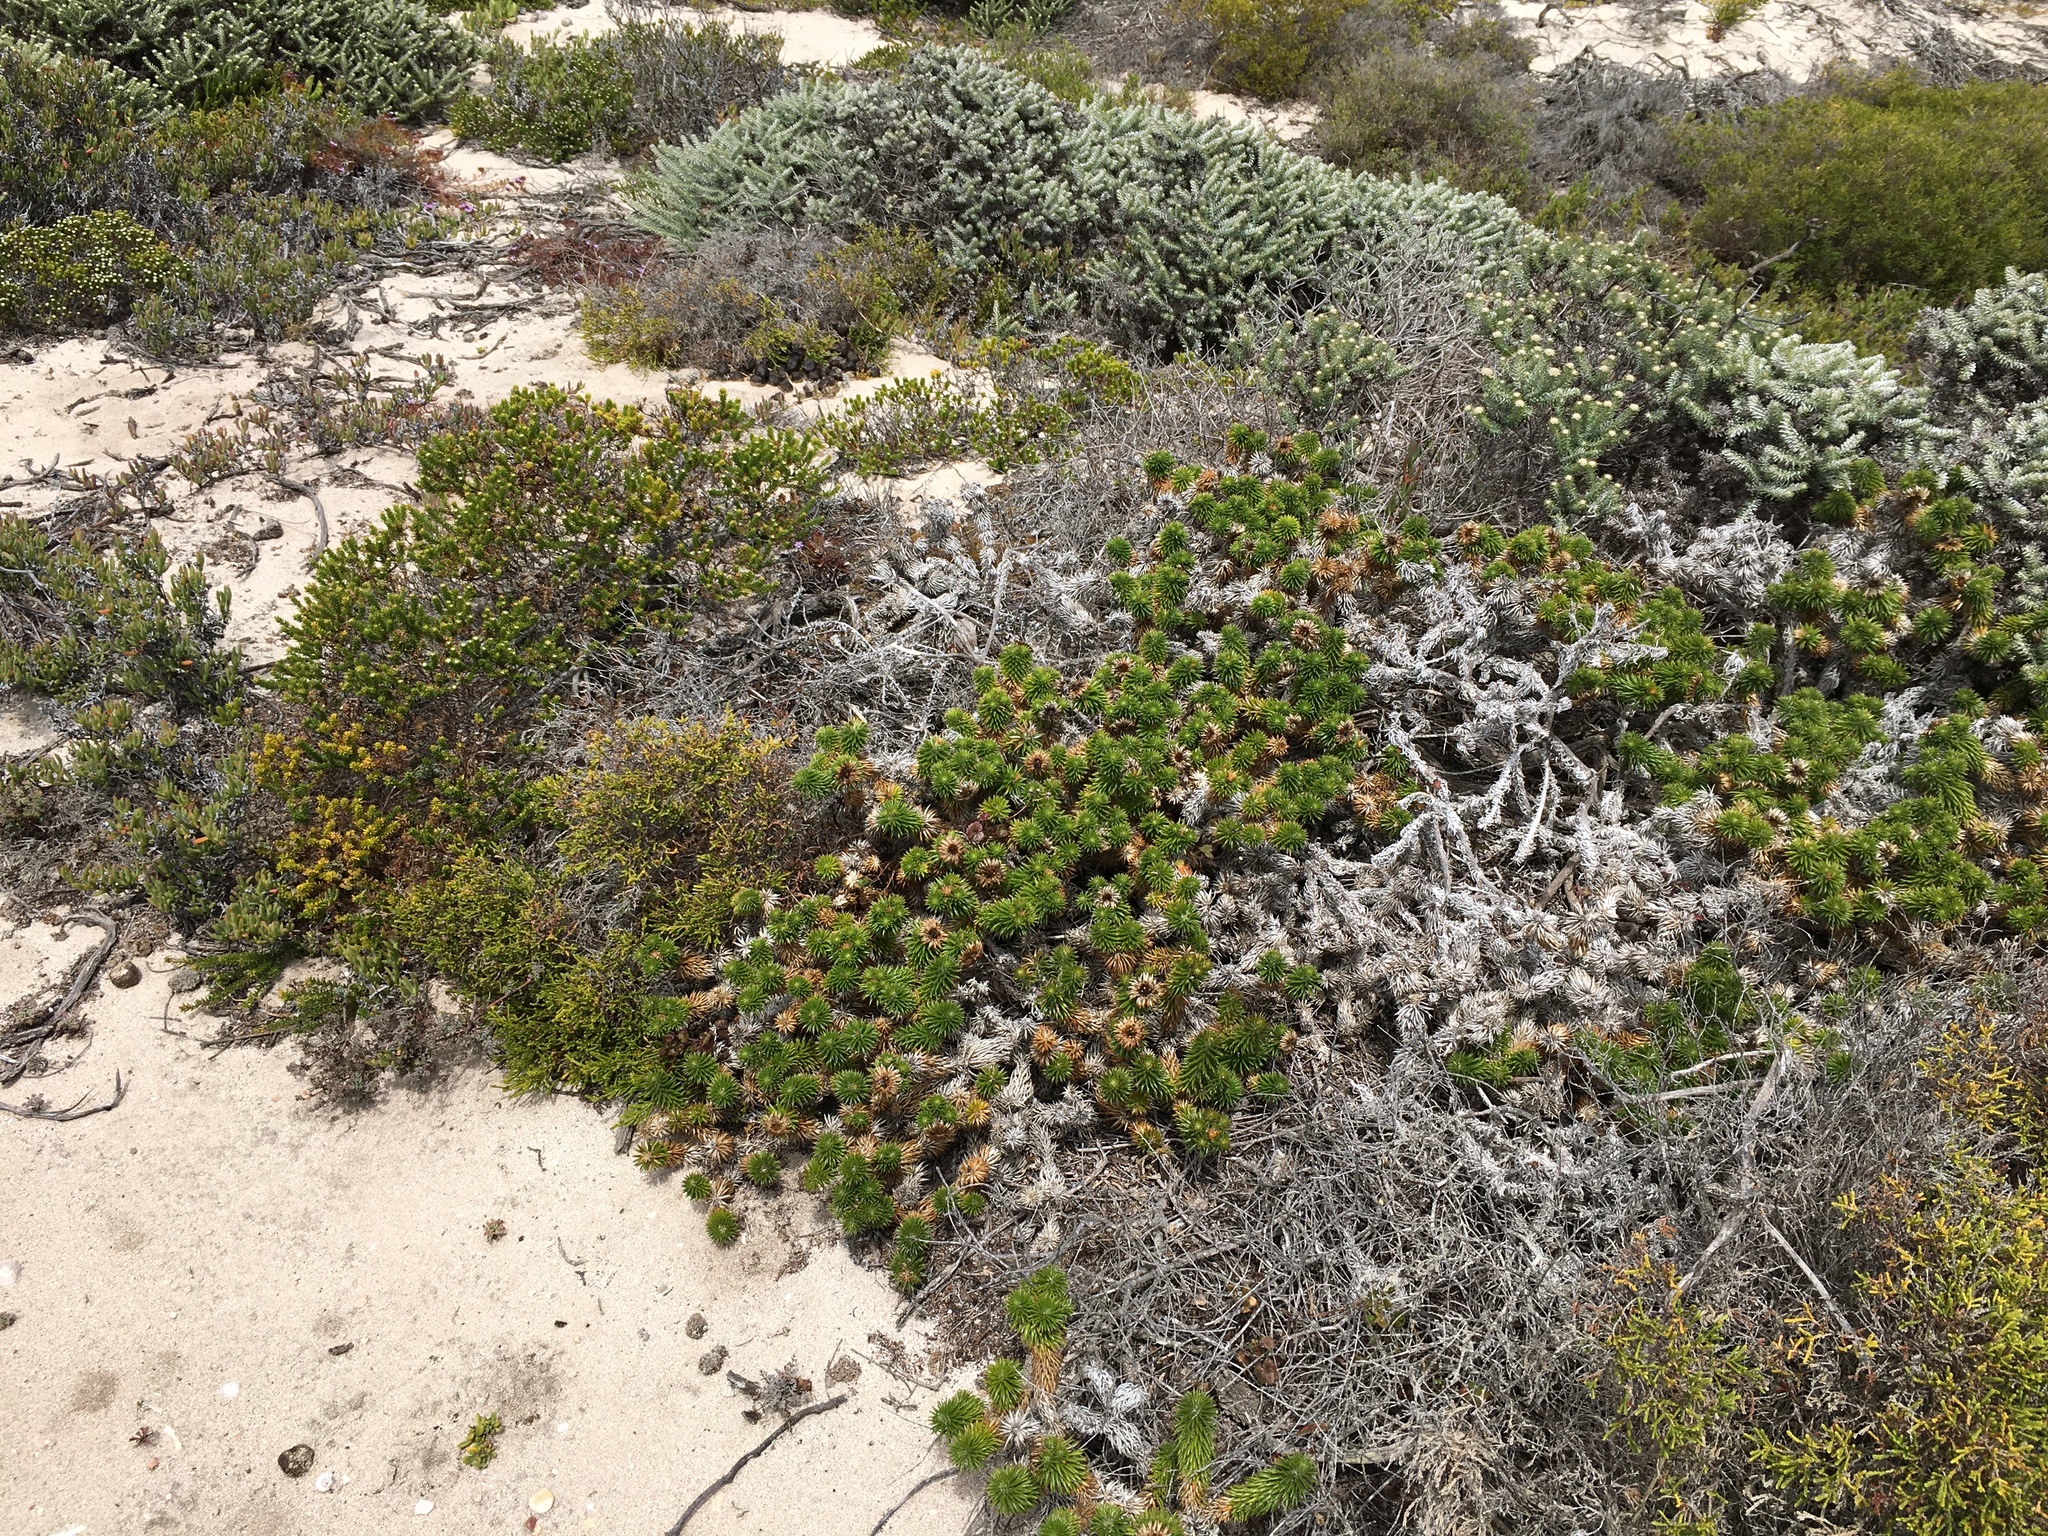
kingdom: Plantae
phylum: Tracheophyta
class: Magnoliopsida
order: Asterales
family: Asteraceae
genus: Cullumia
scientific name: Cullumia squarrosa
